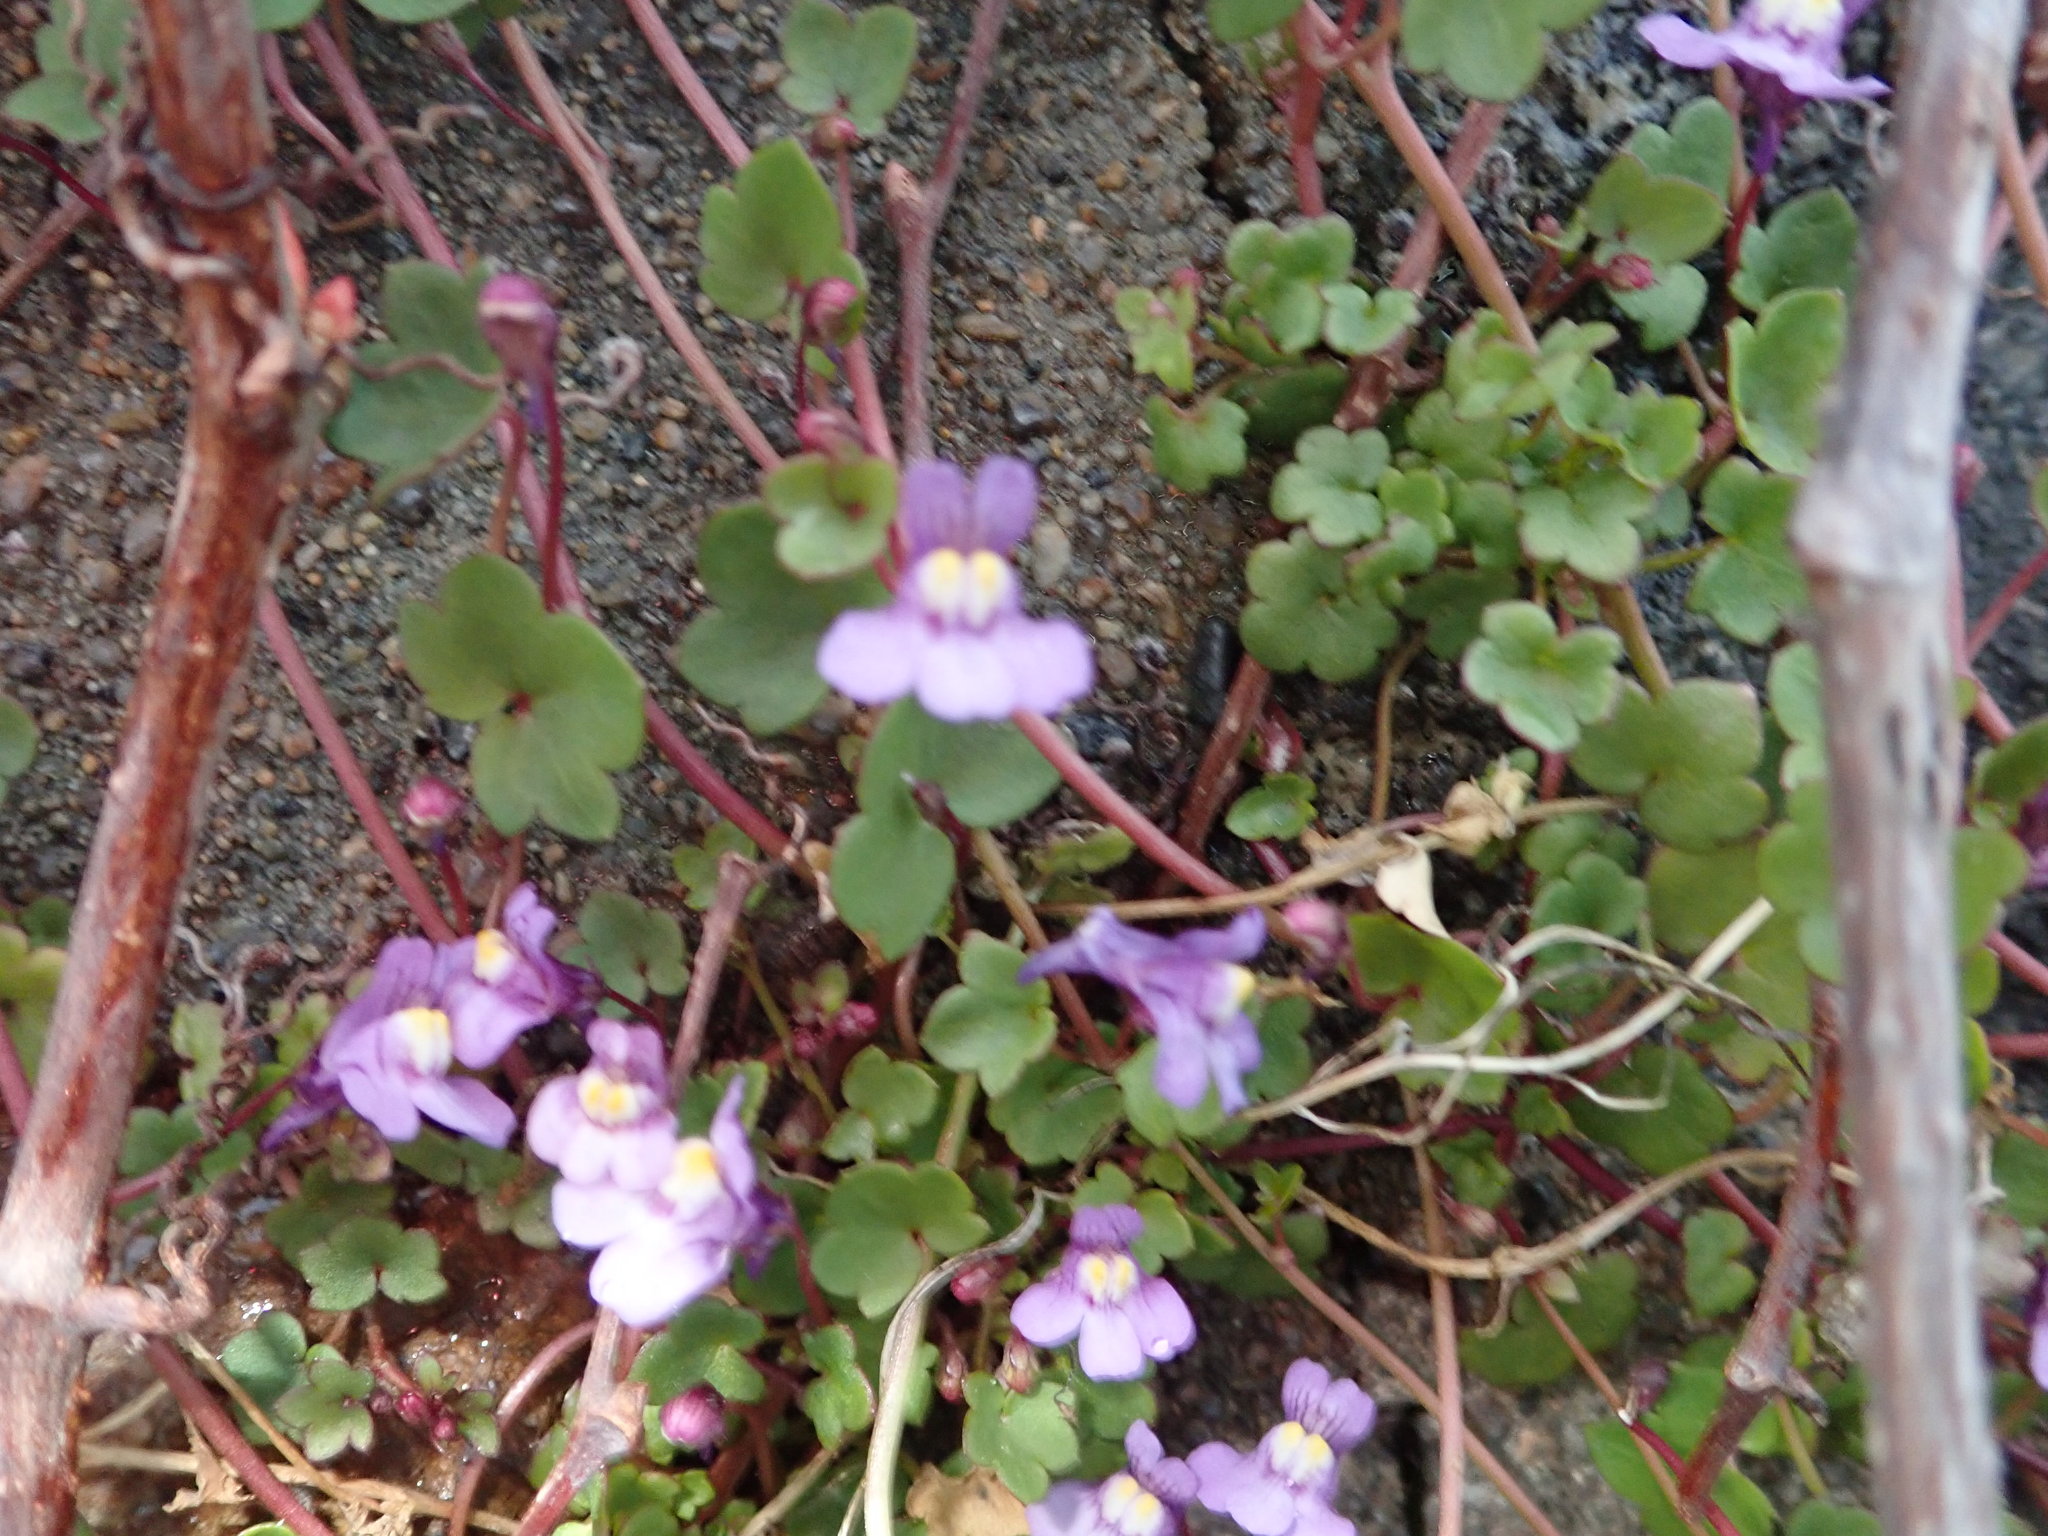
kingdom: Plantae
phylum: Tracheophyta
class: Magnoliopsida
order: Lamiales
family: Plantaginaceae
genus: Cymbalaria
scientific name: Cymbalaria muralis
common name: Ivy-leaved toadflax
